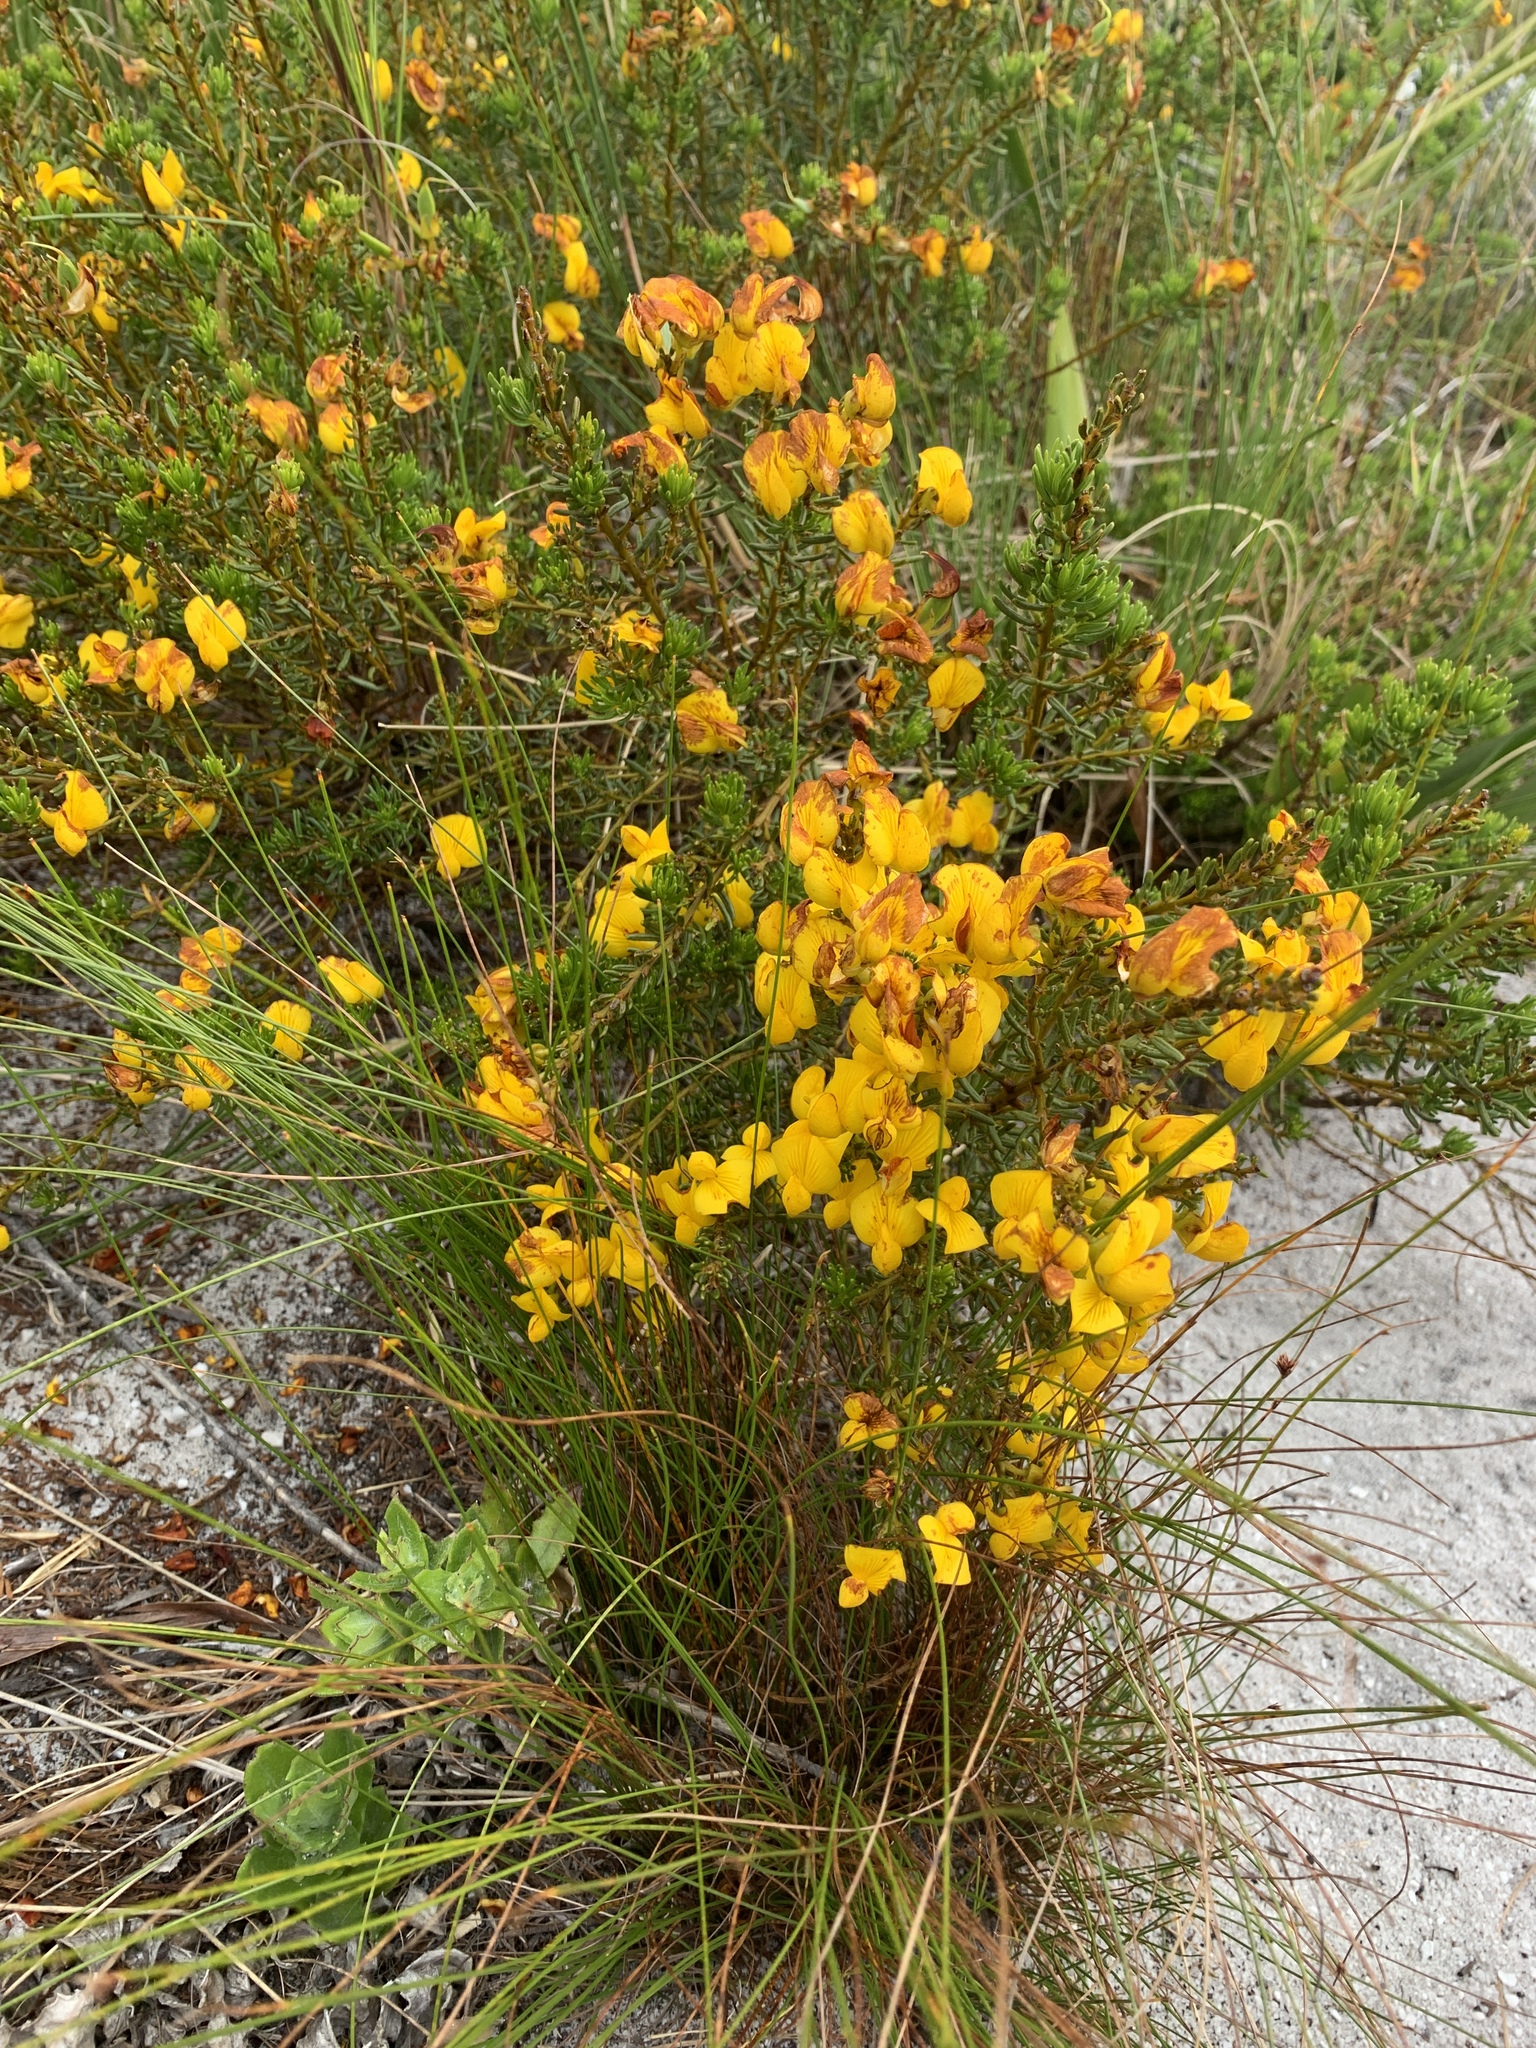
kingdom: Plantae
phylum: Tracheophyta
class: Magnoliopsida
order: Fabales
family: Fabaceae
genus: Cyclopia
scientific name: Cyclopia genistoides
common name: Honeybush tea
